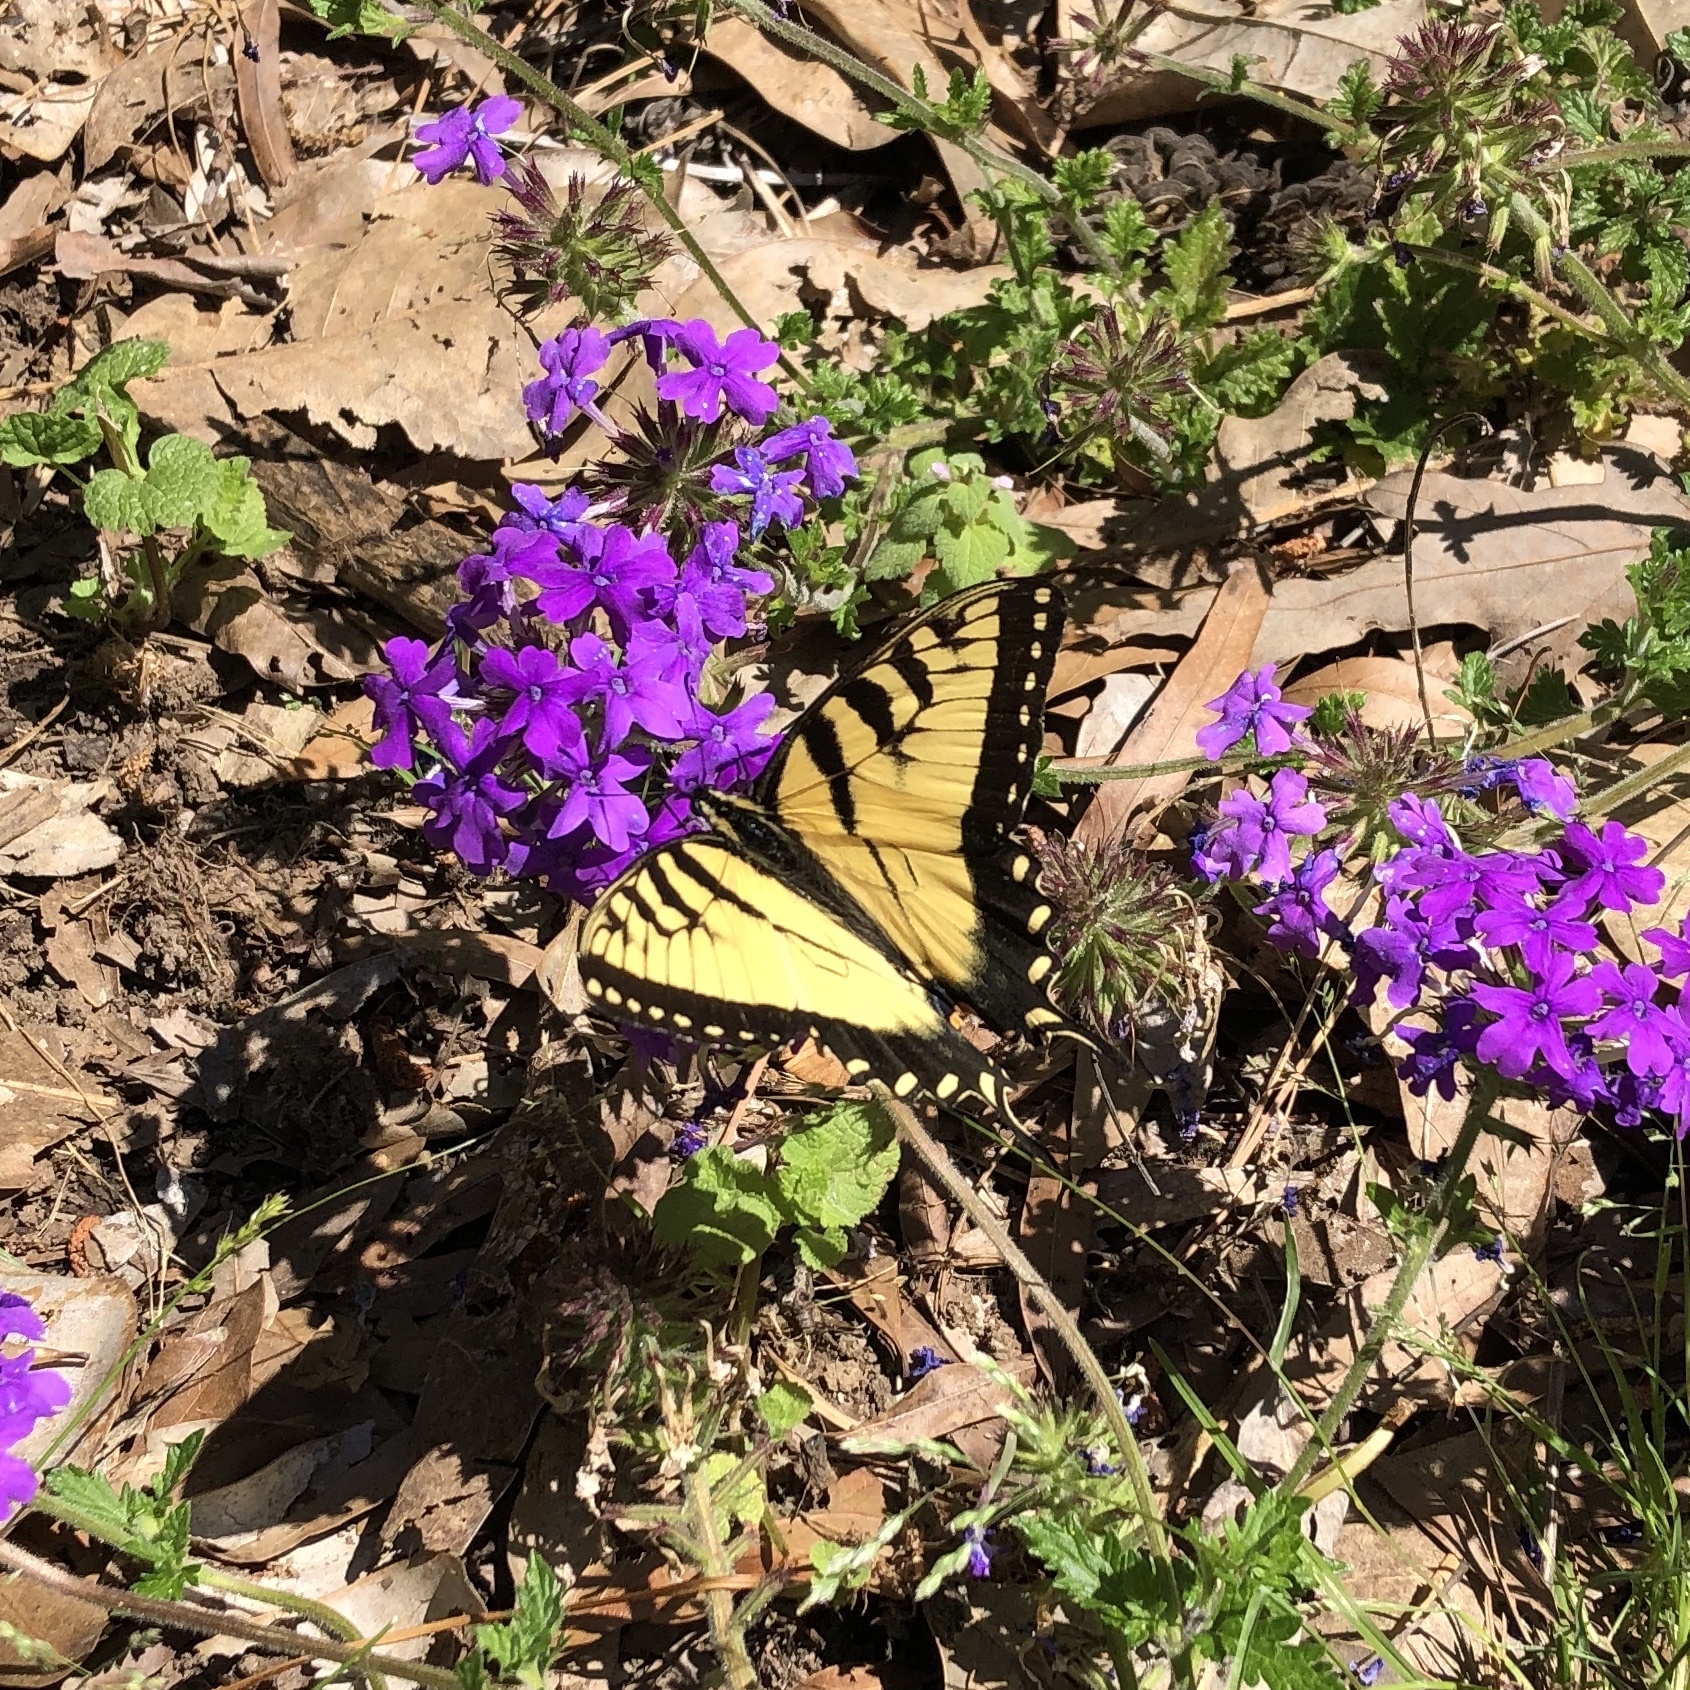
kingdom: Animalia
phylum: Arthropoda
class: Insecta
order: Lepidoptera
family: Papilionidae
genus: Papilio
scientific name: Papilio glaucus
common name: Tiger swallowtail
